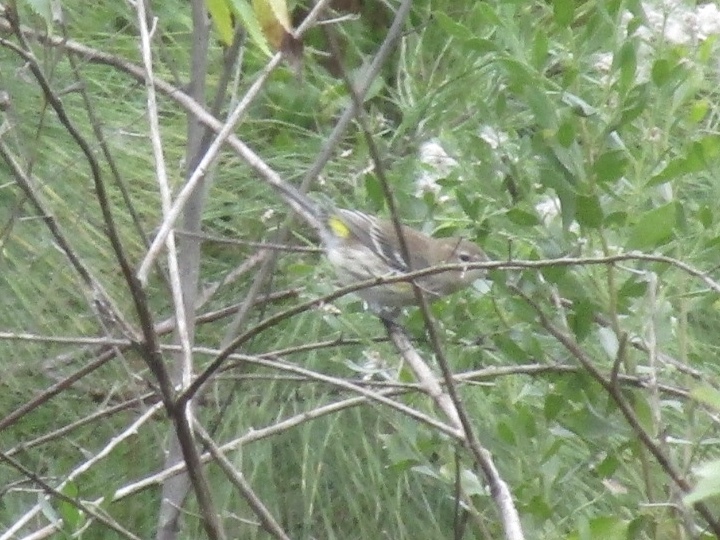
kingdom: Animalia
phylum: Chordata
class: Aves
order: Passeriformes
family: Parulidae
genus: Setophaga
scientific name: Setophaga coronata
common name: Myrtle warbler
